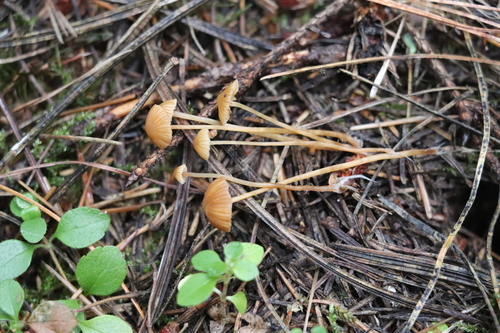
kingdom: Fungi
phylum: Basidiomycota
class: Agaricomycetes
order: Agaricales
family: Hymenogastraceae
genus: Galerina
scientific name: Galerina
